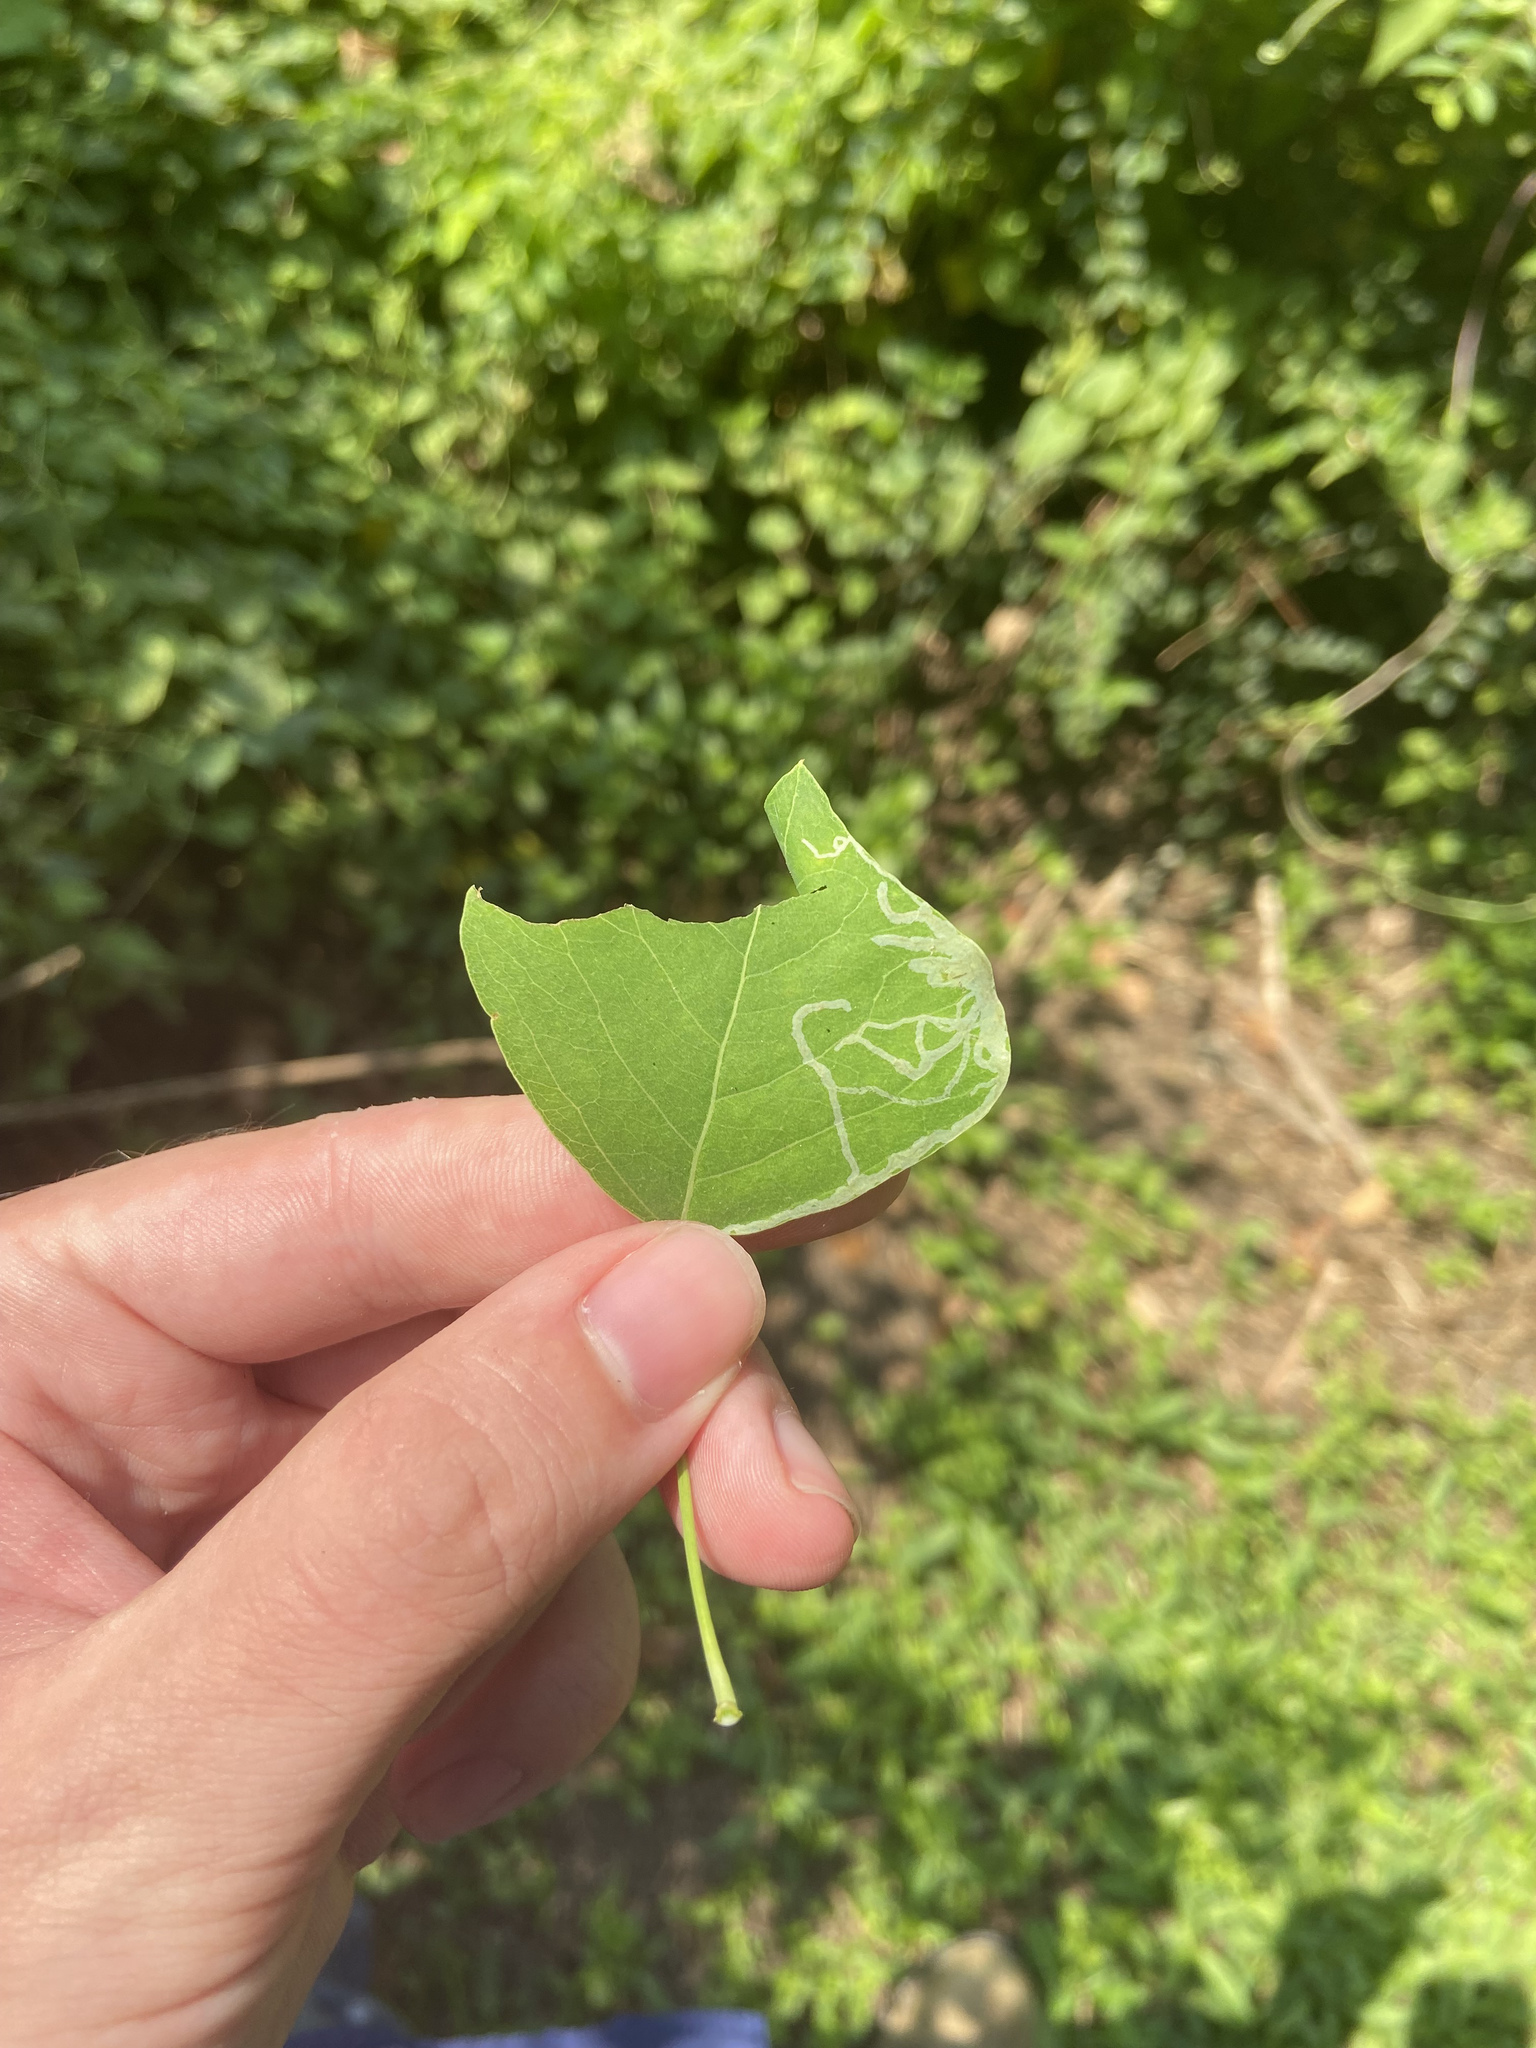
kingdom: Animalia
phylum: Arthropoda
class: Insecta
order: Lepidoptera
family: Gracillariidae
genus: Caloptilia
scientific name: Caloptilia triadicae
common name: Tallow leaf roller
